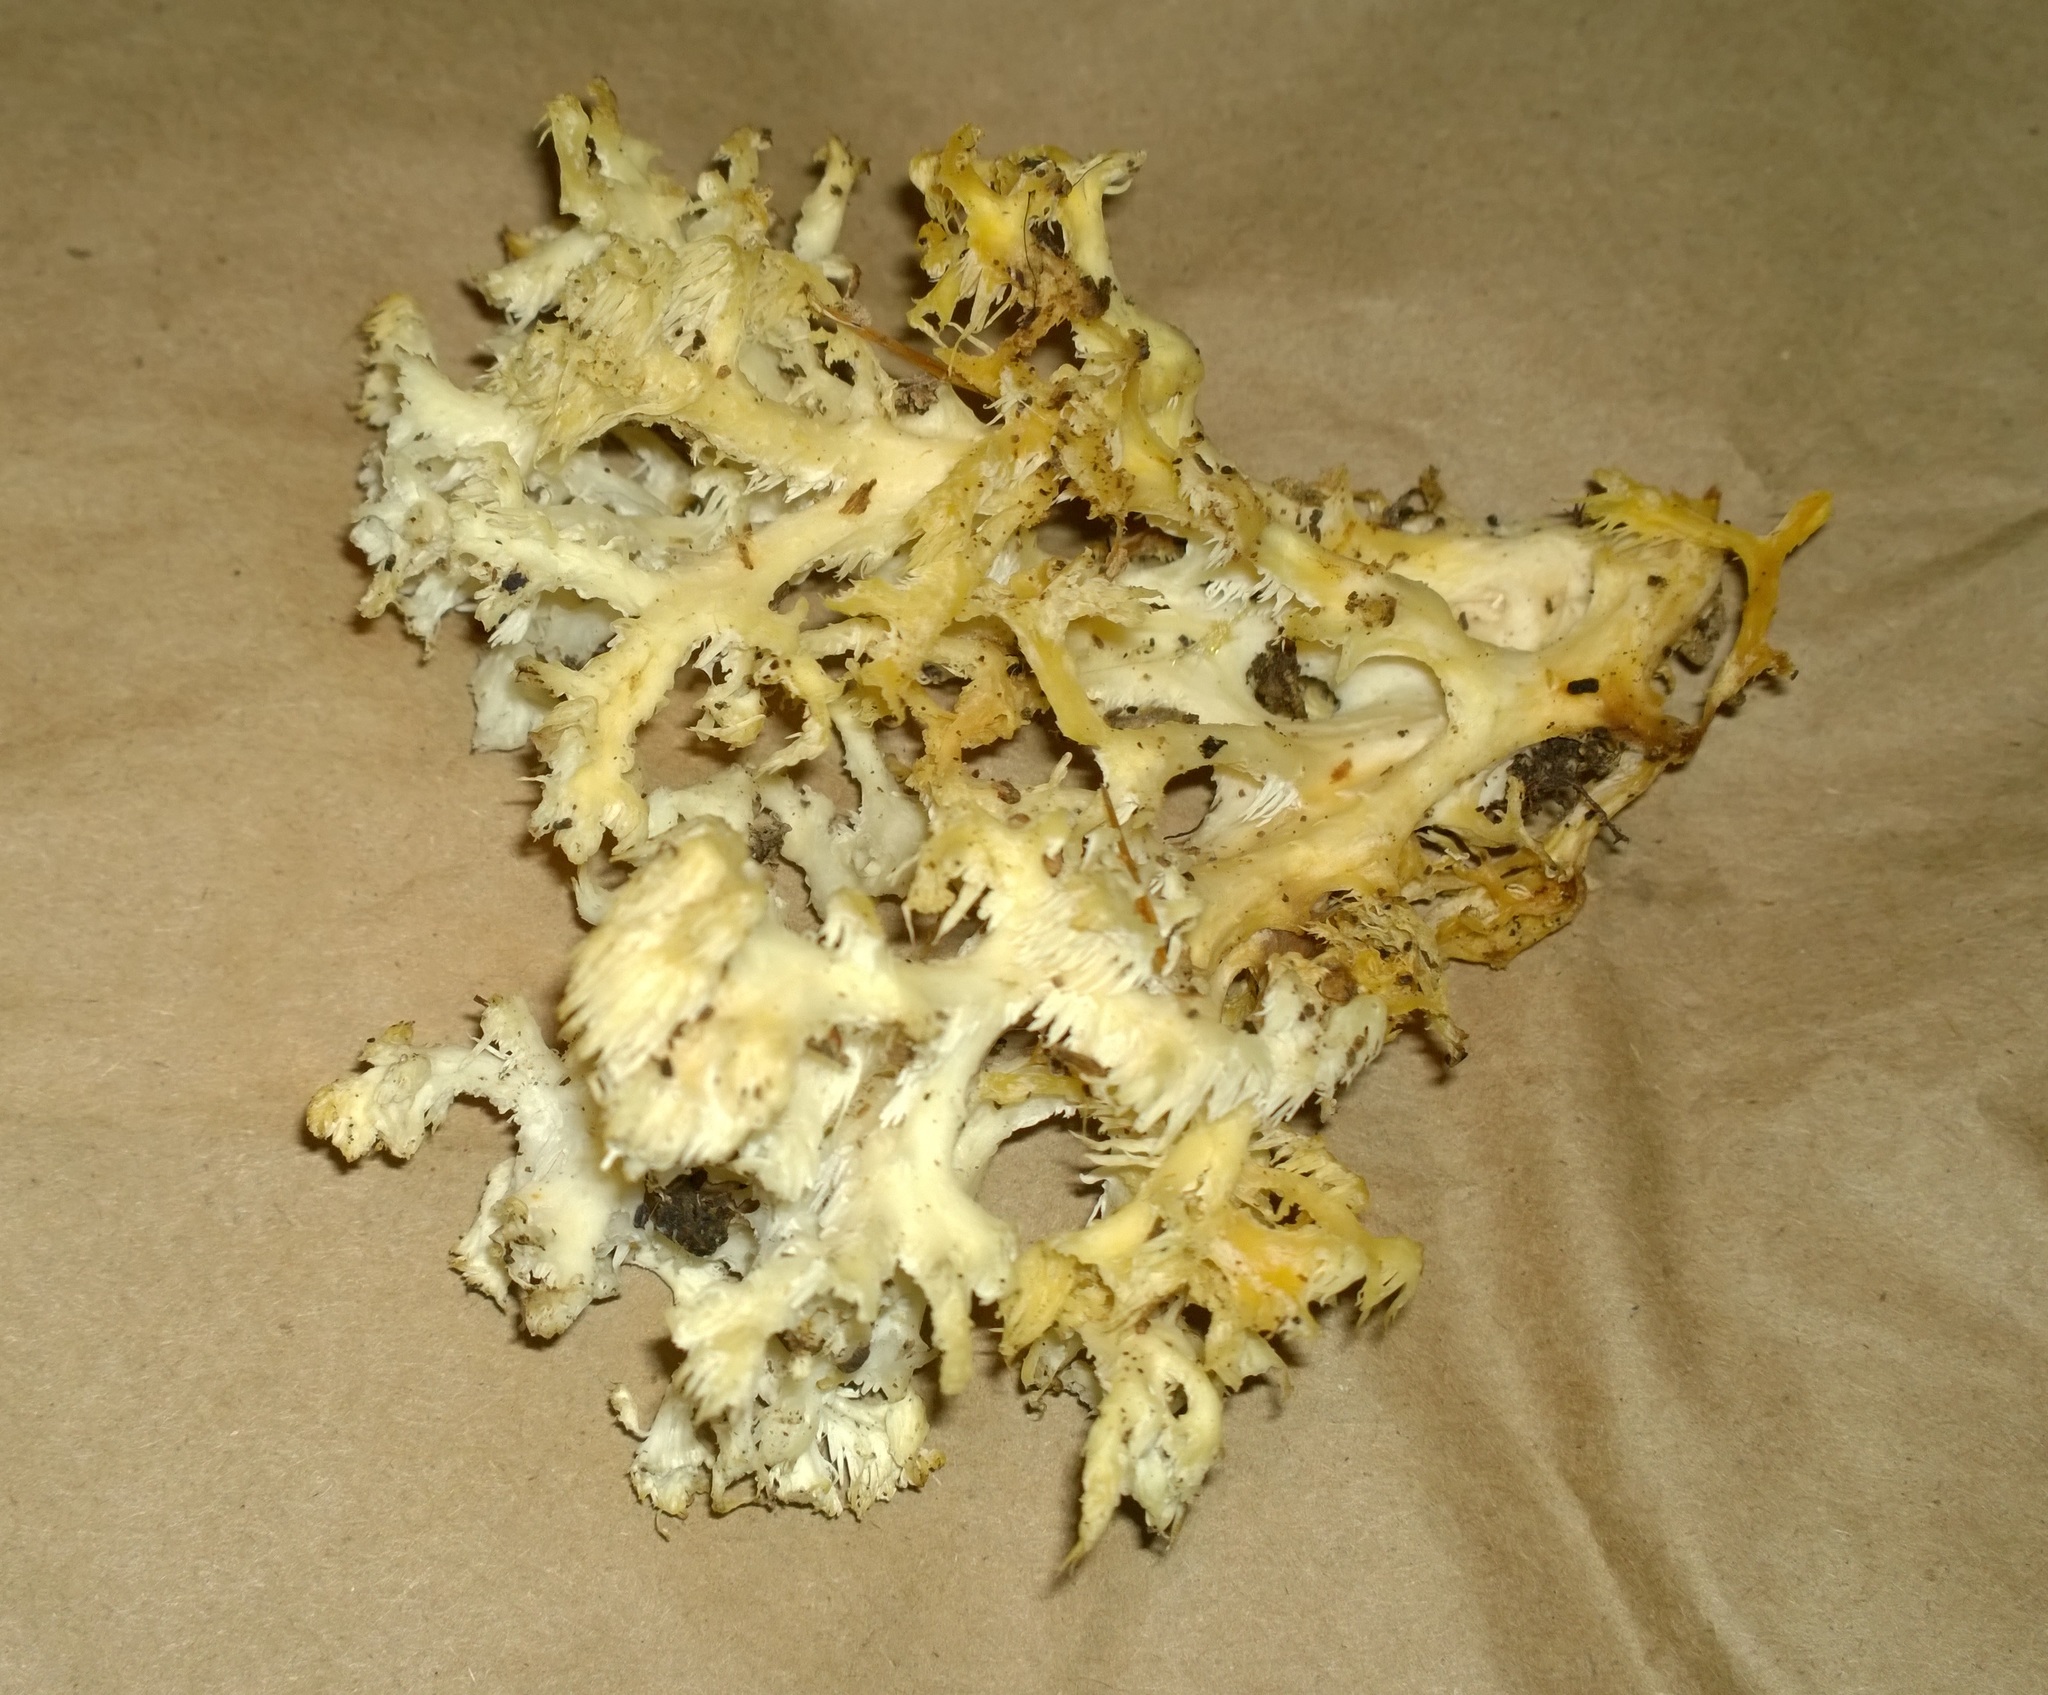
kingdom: Fungi
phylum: Basidiomycota
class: Agaricomycetes
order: Russulales
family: Hericiaceae
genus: Hericium
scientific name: Hericium coralloides
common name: Coral tooth
